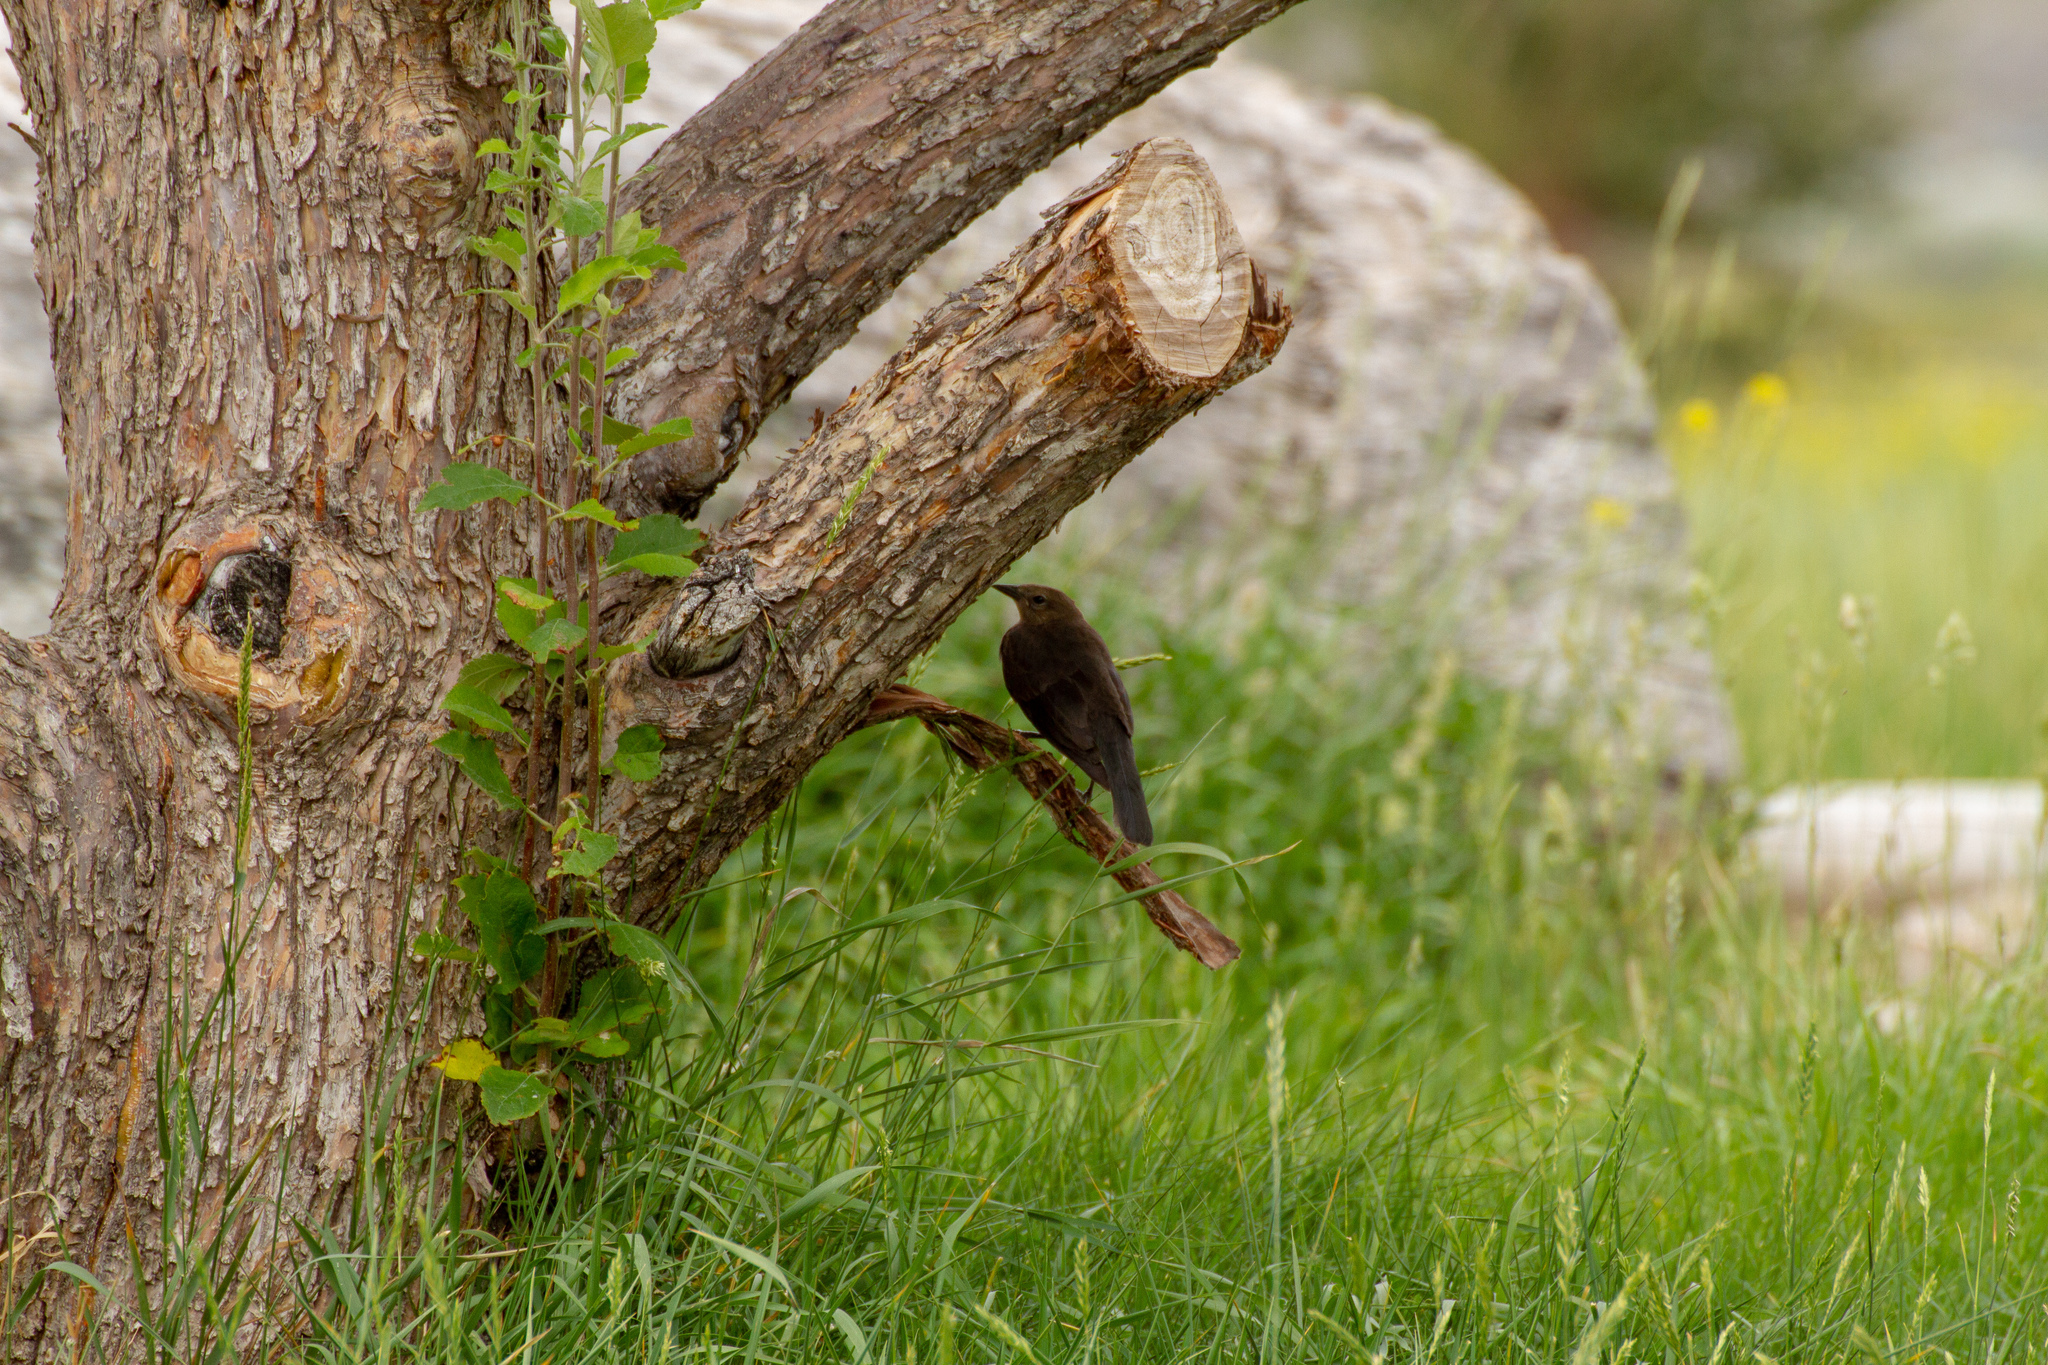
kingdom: Animalia
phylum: Chordata
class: Aves
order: Passeriformes
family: Icteridae
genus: Euphagus
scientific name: Euphagus cyanocephalus
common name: Brewer's blackbird
